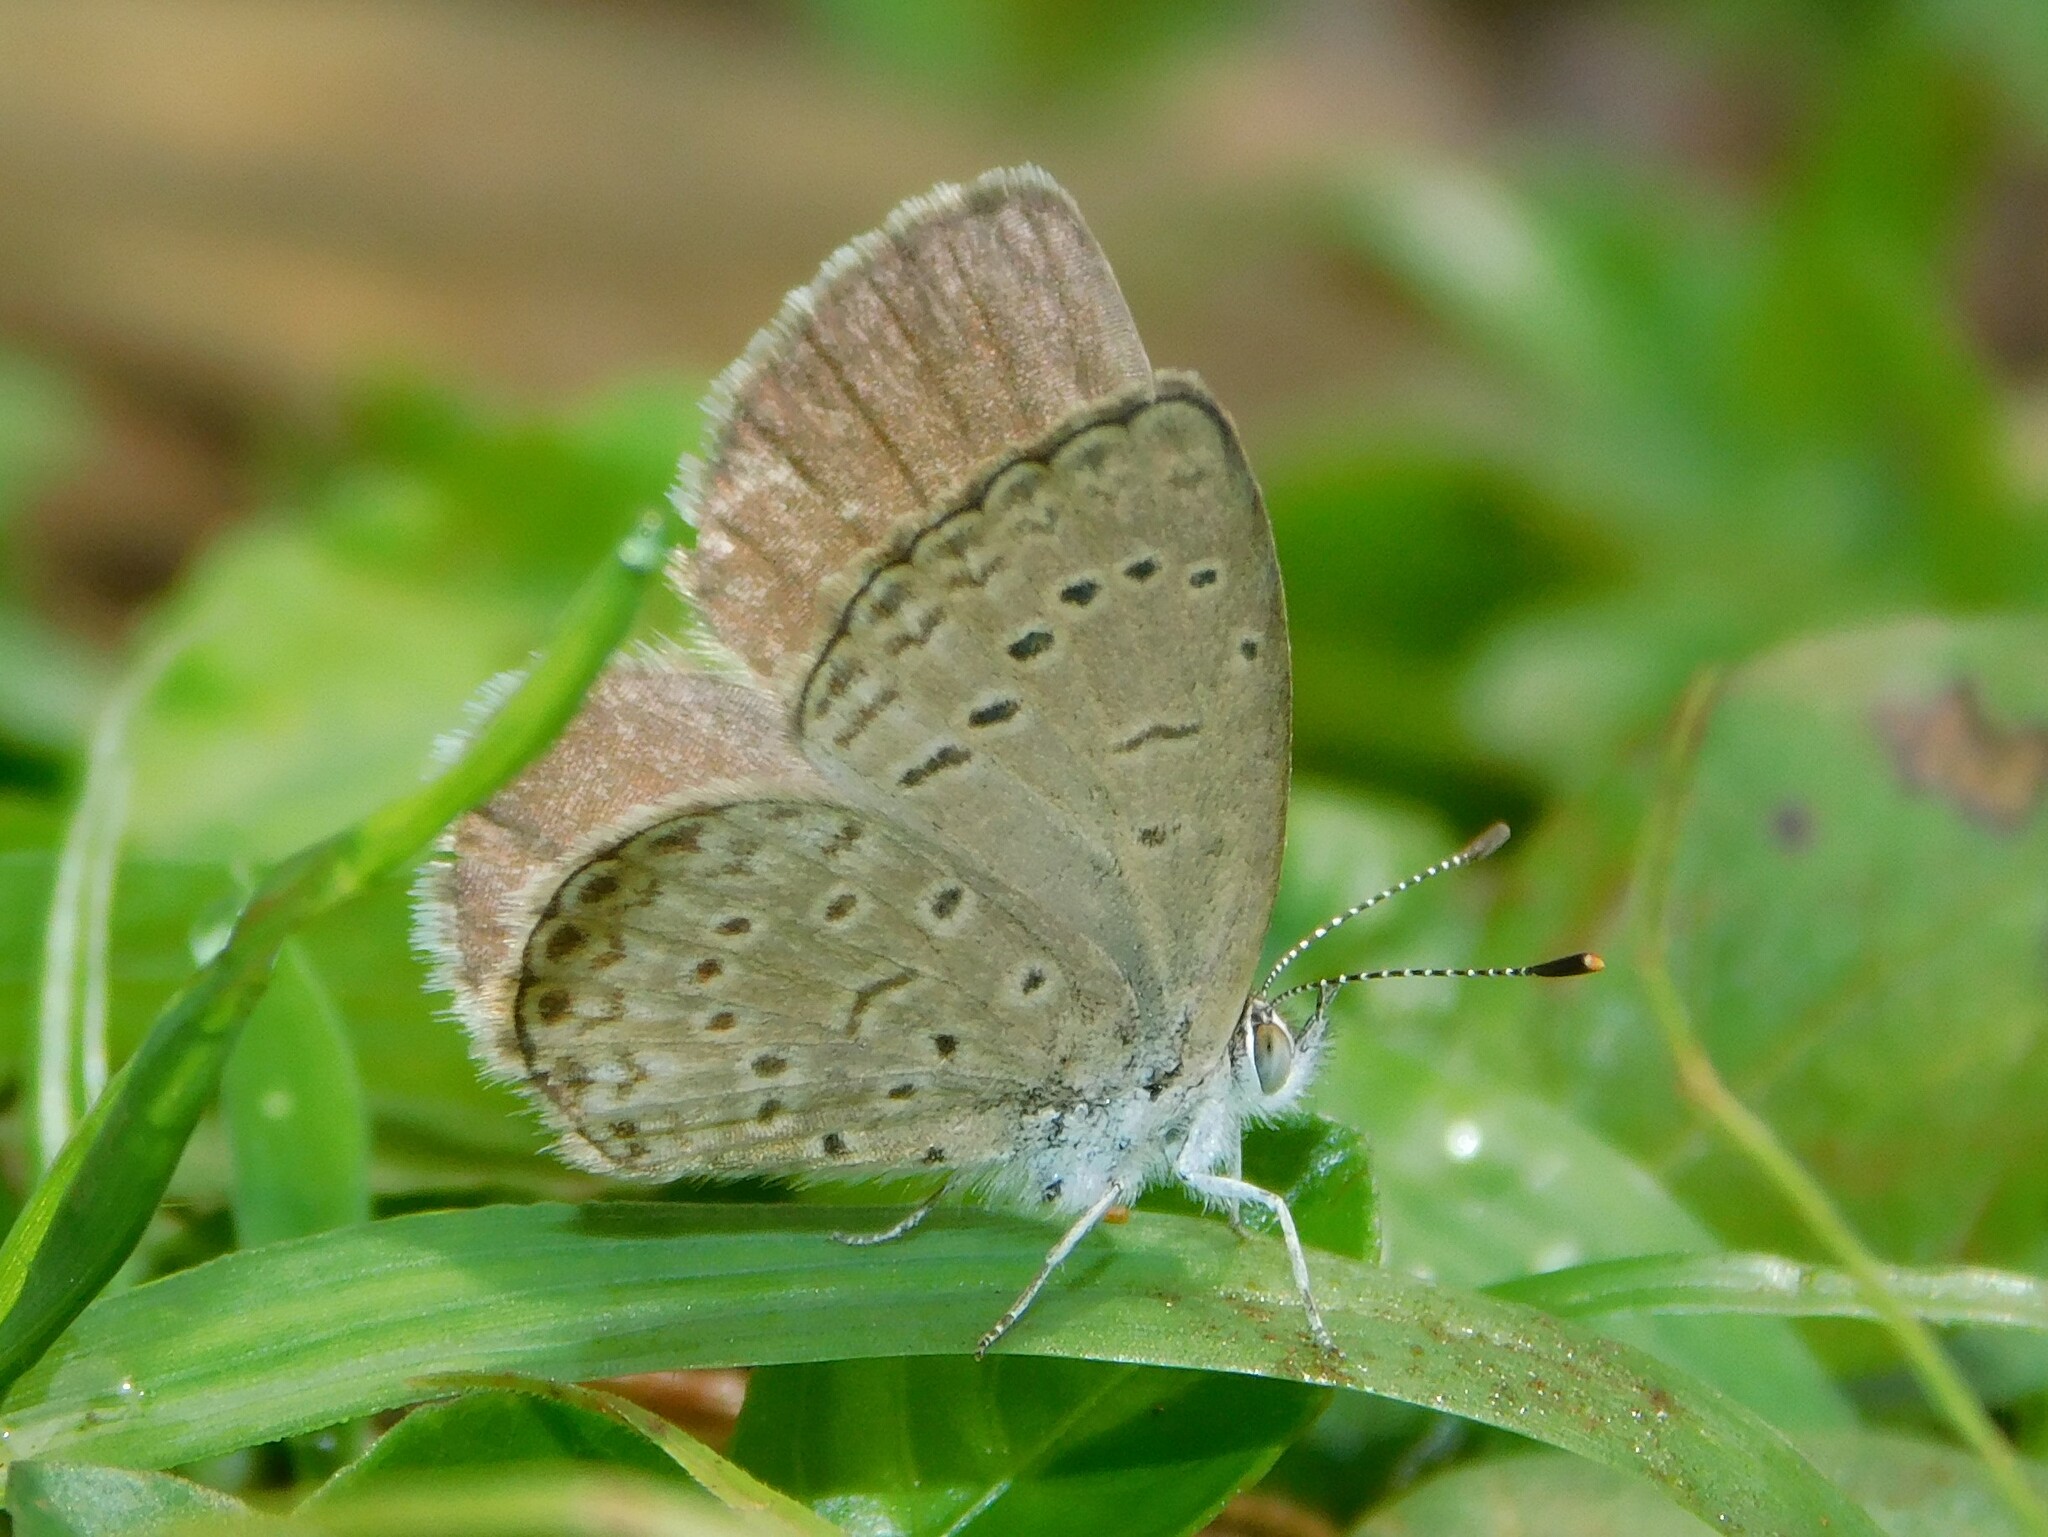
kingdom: Animalia
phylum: Arthropoda
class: Insecta
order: Lepidoptera
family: Lycaenidae
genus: Zizeeria
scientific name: Zizeeria knysna
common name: African grass blue
